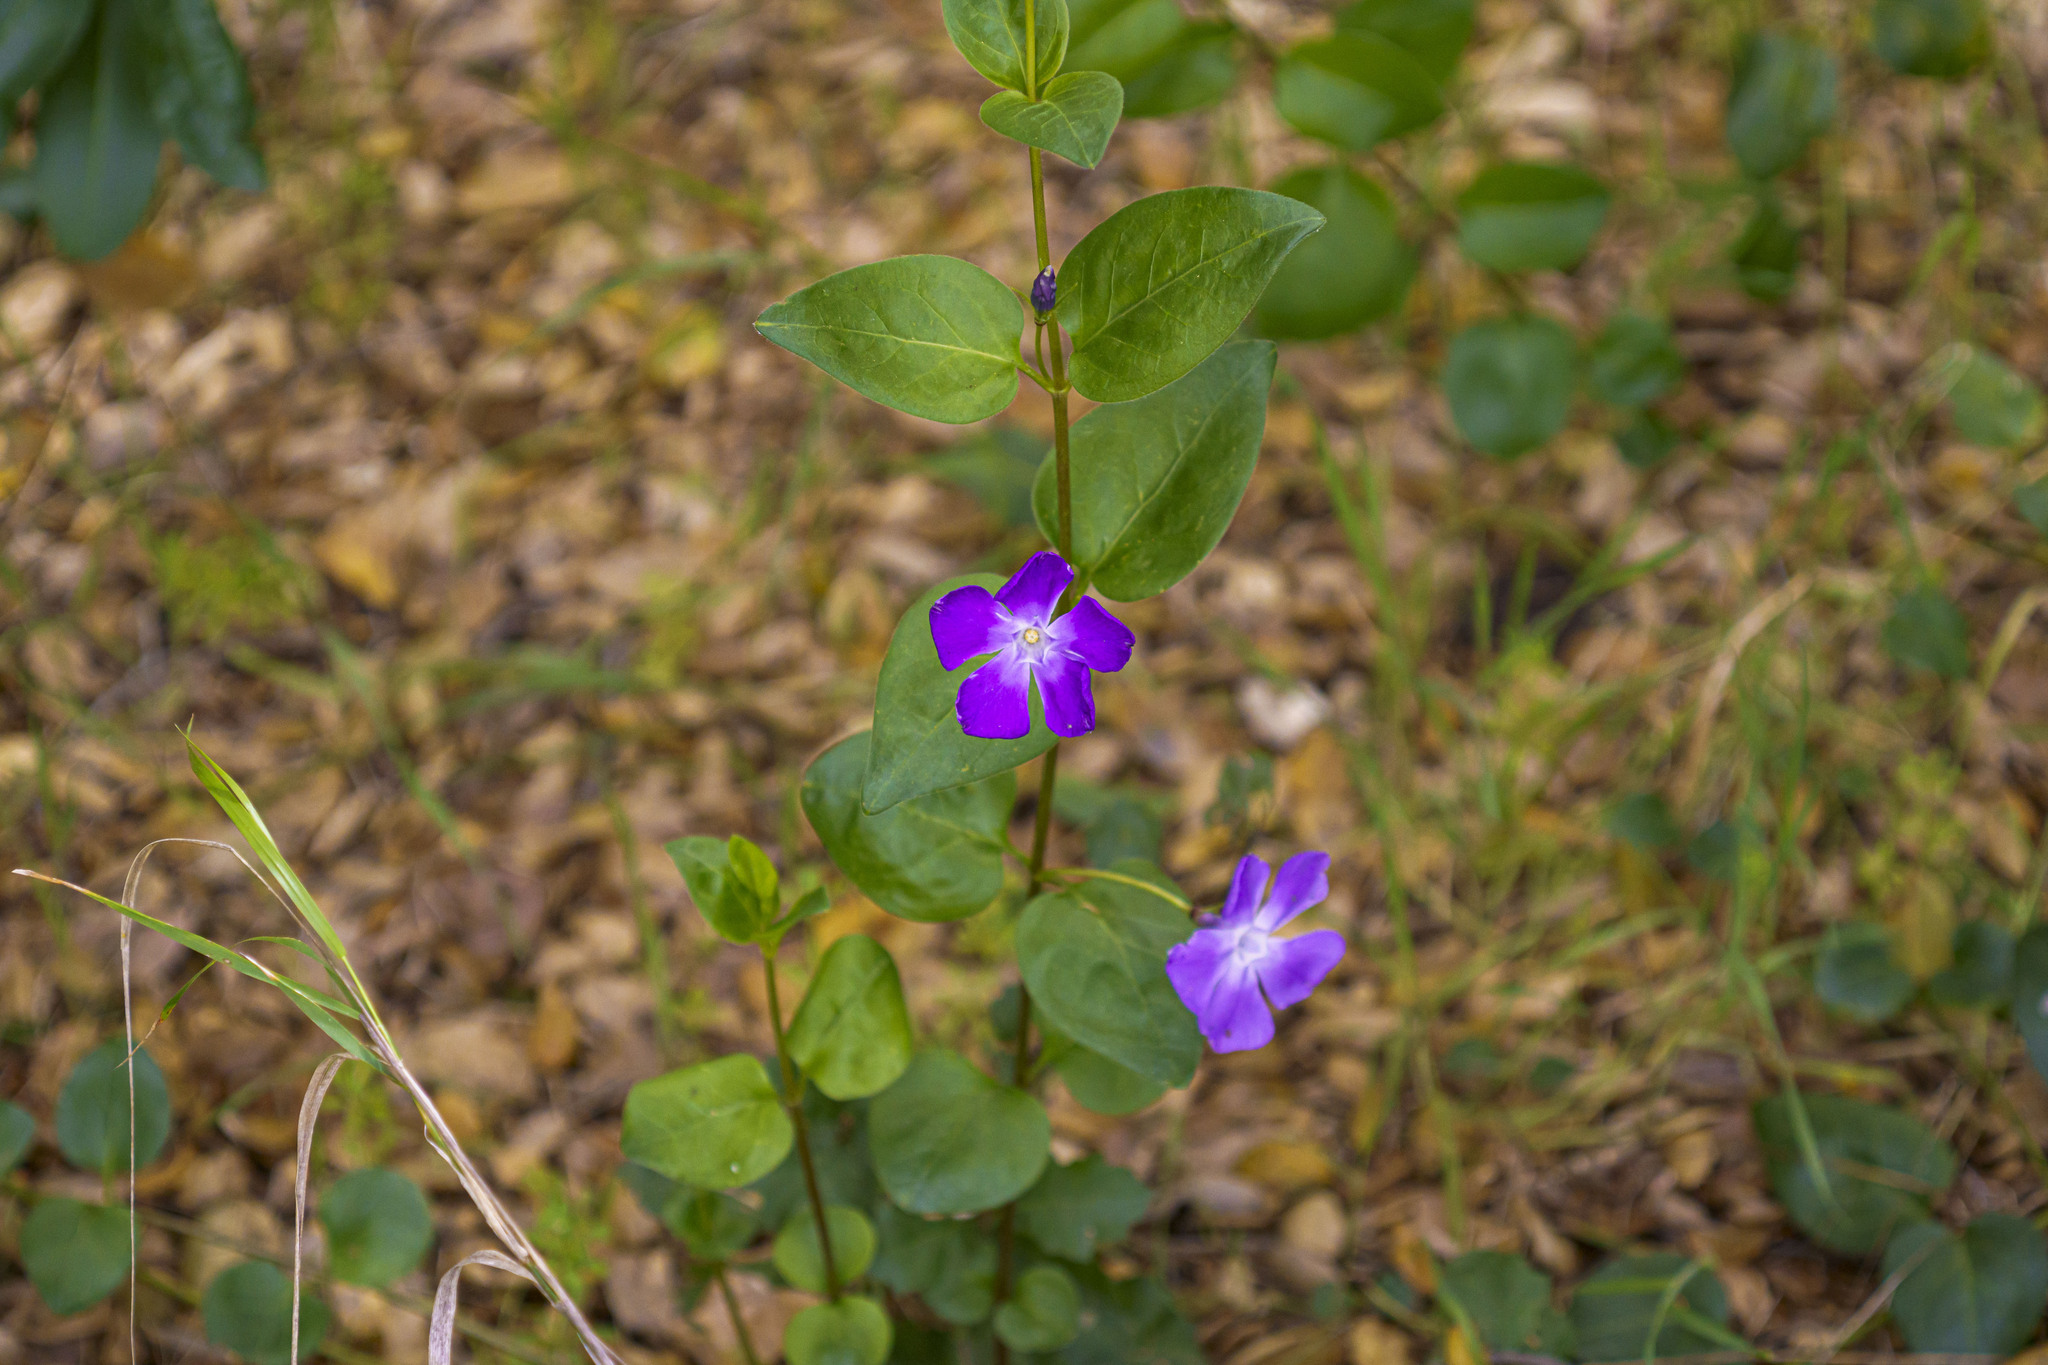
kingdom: Plantae
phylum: Tracheophyta
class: Magnoliopsida
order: Gentianales
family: Apocynaceae
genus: Vinca
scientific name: Vinca major
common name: Greater periwinkle
